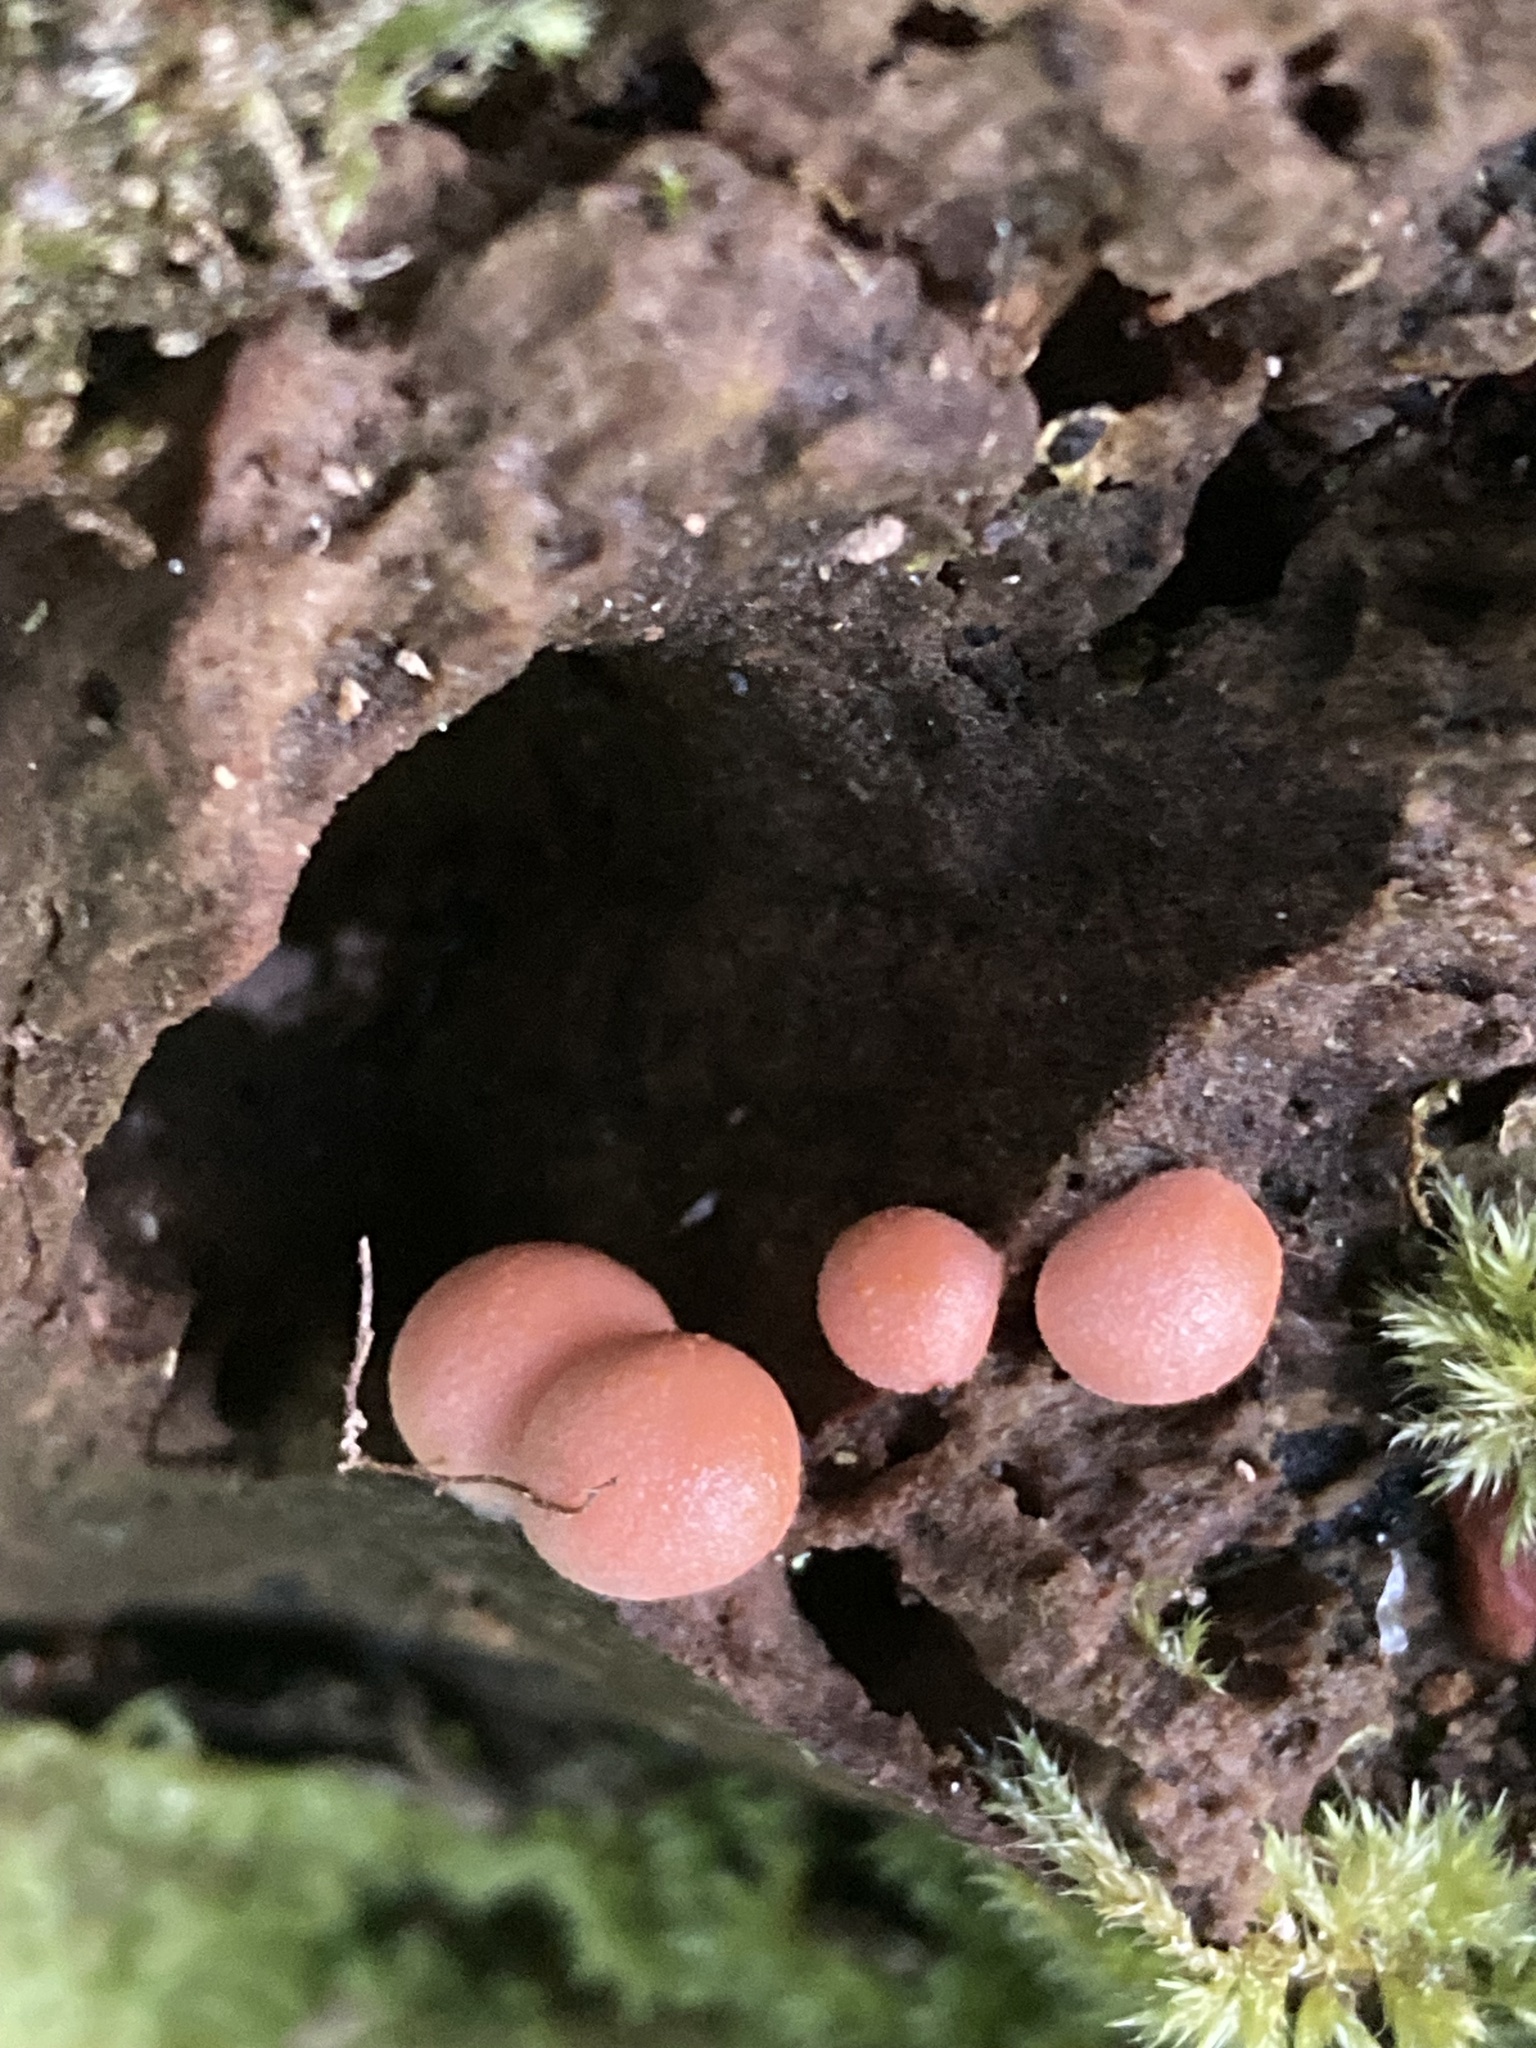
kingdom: Protozoa
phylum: Mycetozoa
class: Myxomycetes
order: Cribrariales
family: Tubiferaceae
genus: Lycogala
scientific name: Lycogala epidendrum
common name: Wolf's milk
